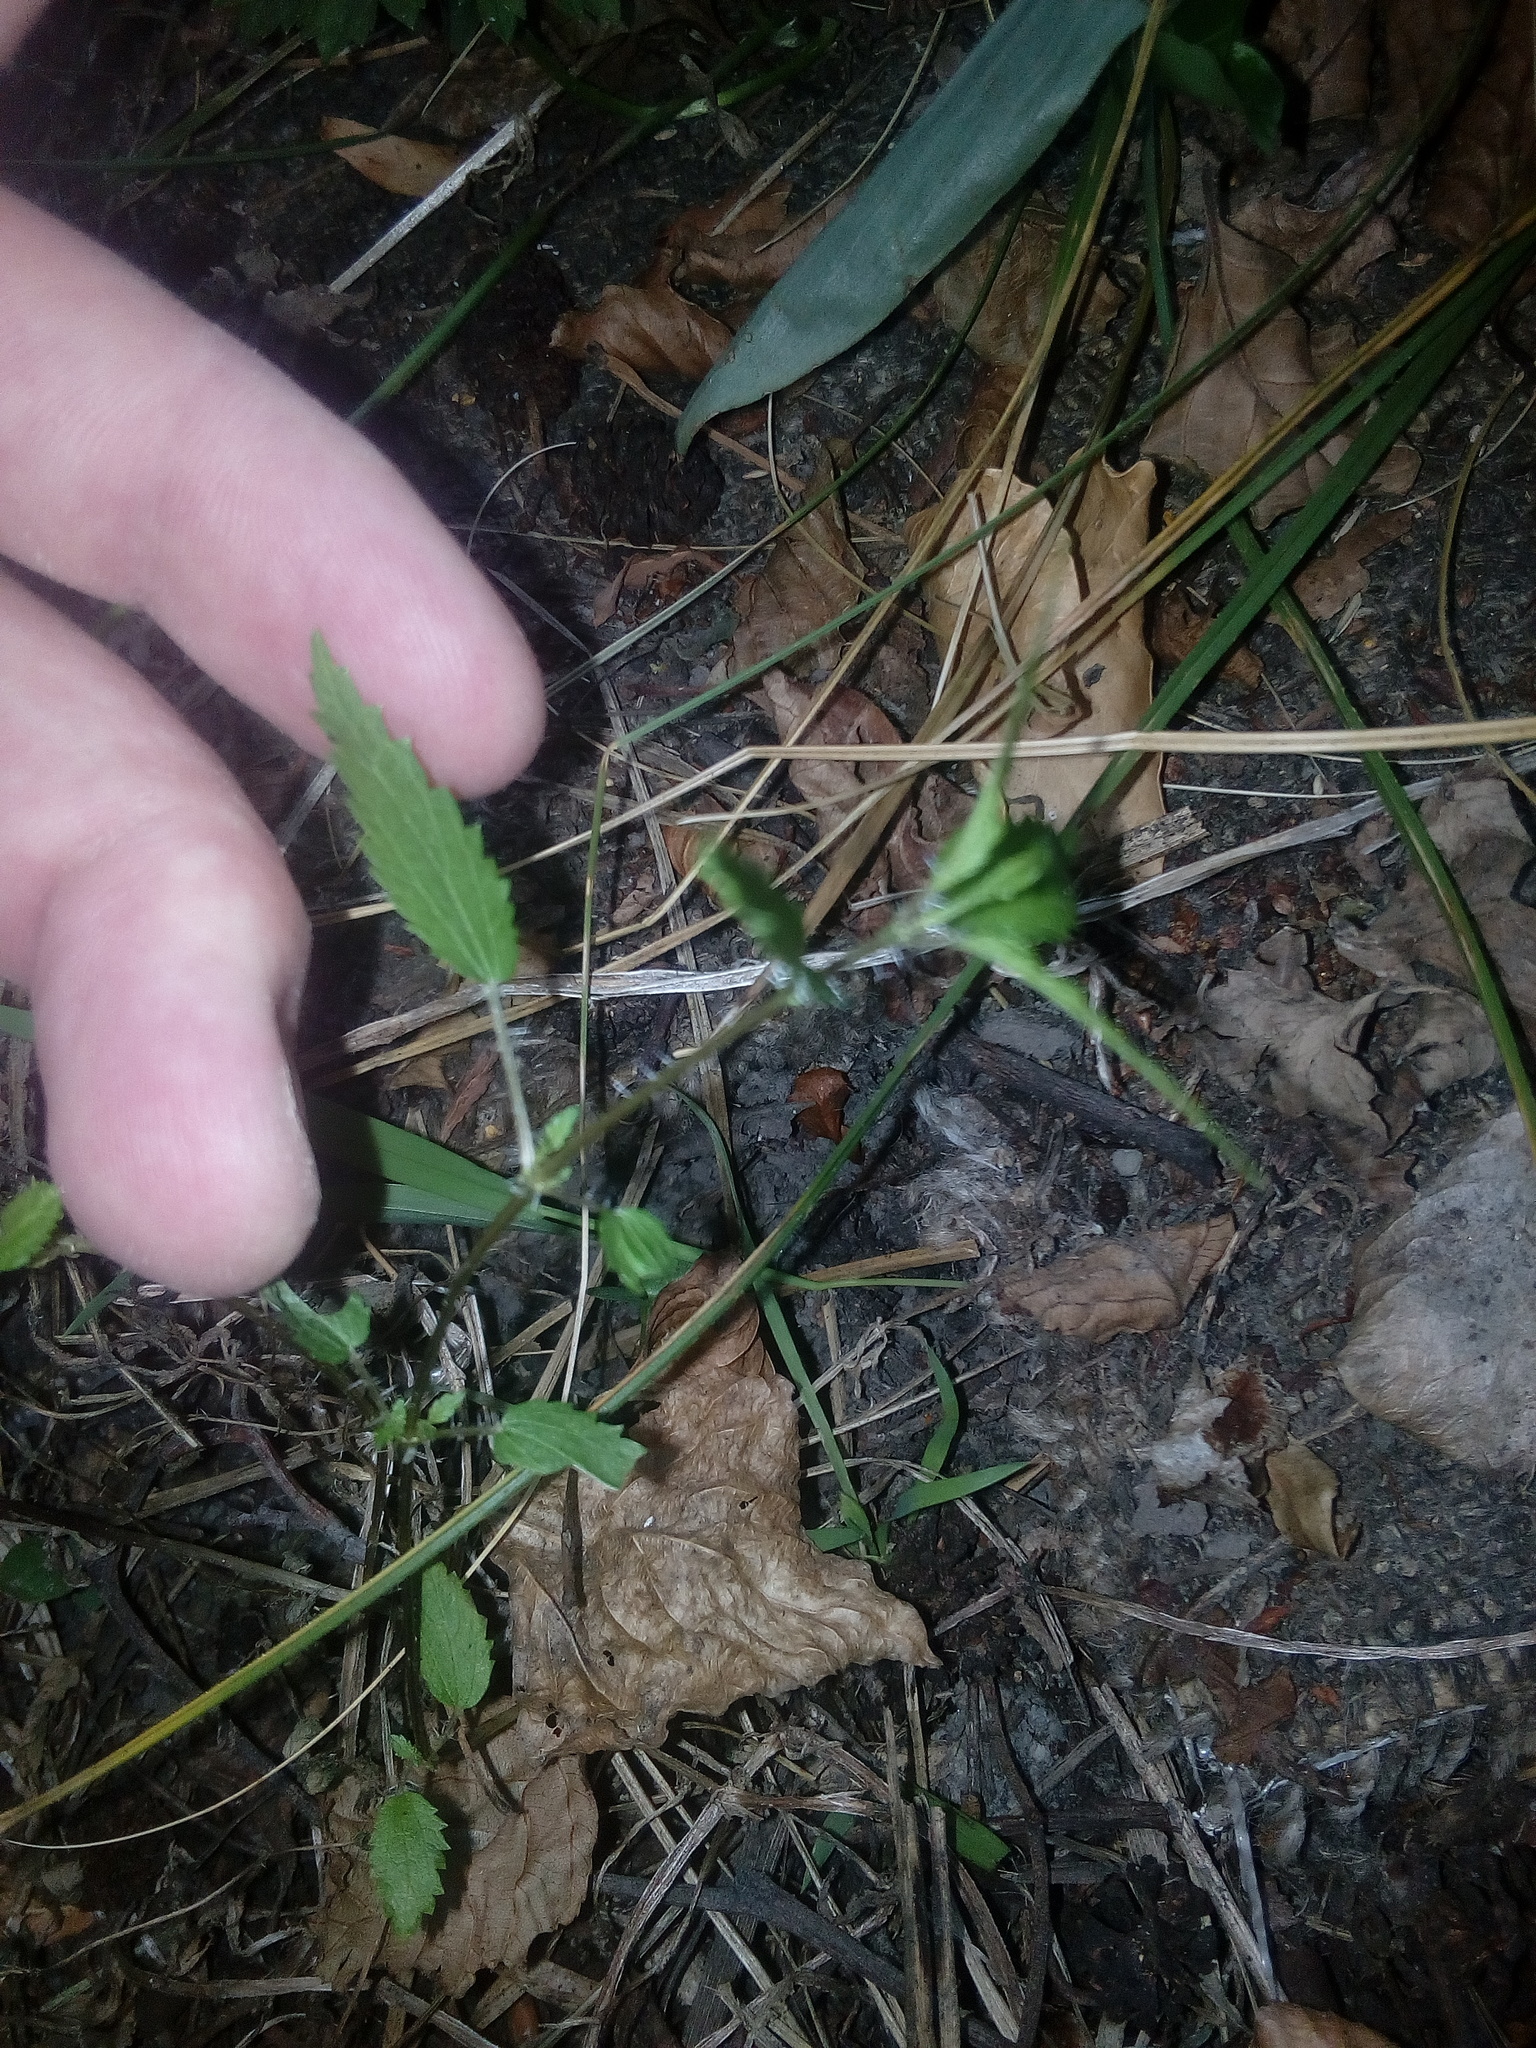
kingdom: Plantae
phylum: Tracheophyta
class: Magnoliopsida
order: Rosales
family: Urticaceae
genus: Urtica
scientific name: Urtica perconfusa
